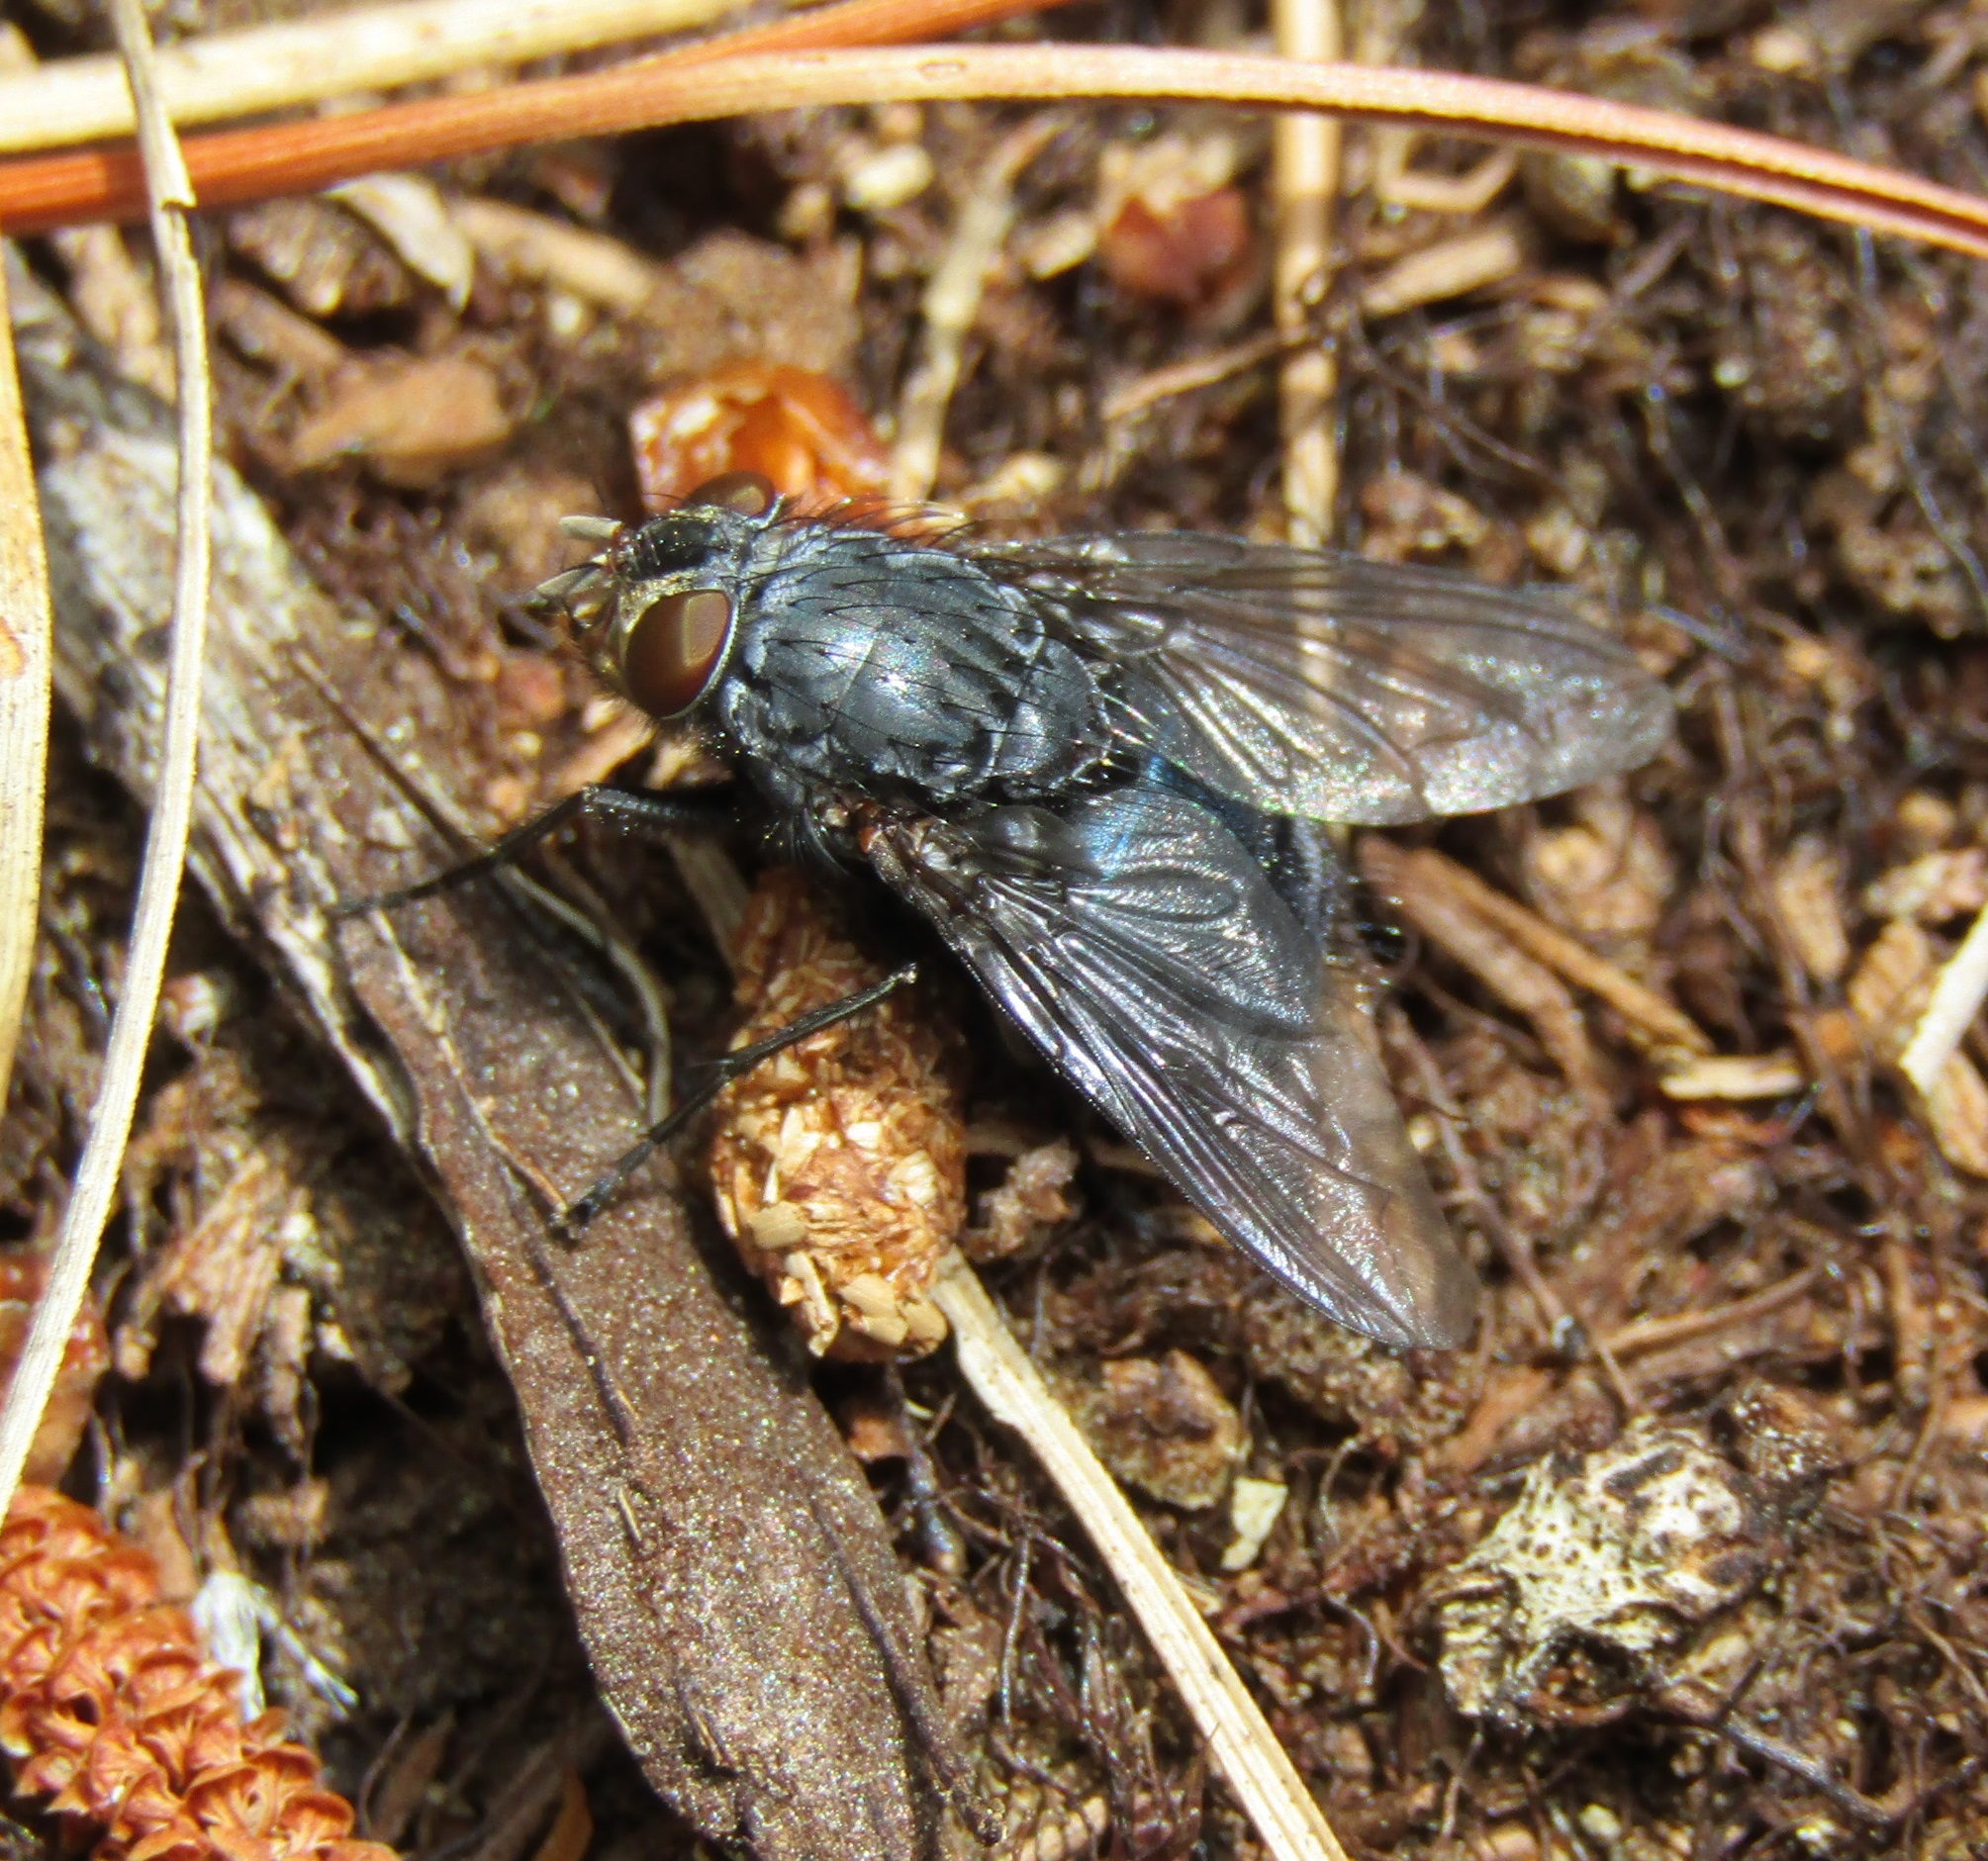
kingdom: Animalia
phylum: Arthropoda
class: Insecta
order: Diptera
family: Calliphoridae
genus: Calliphora
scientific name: Calliphora vicina
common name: Common blow flie
